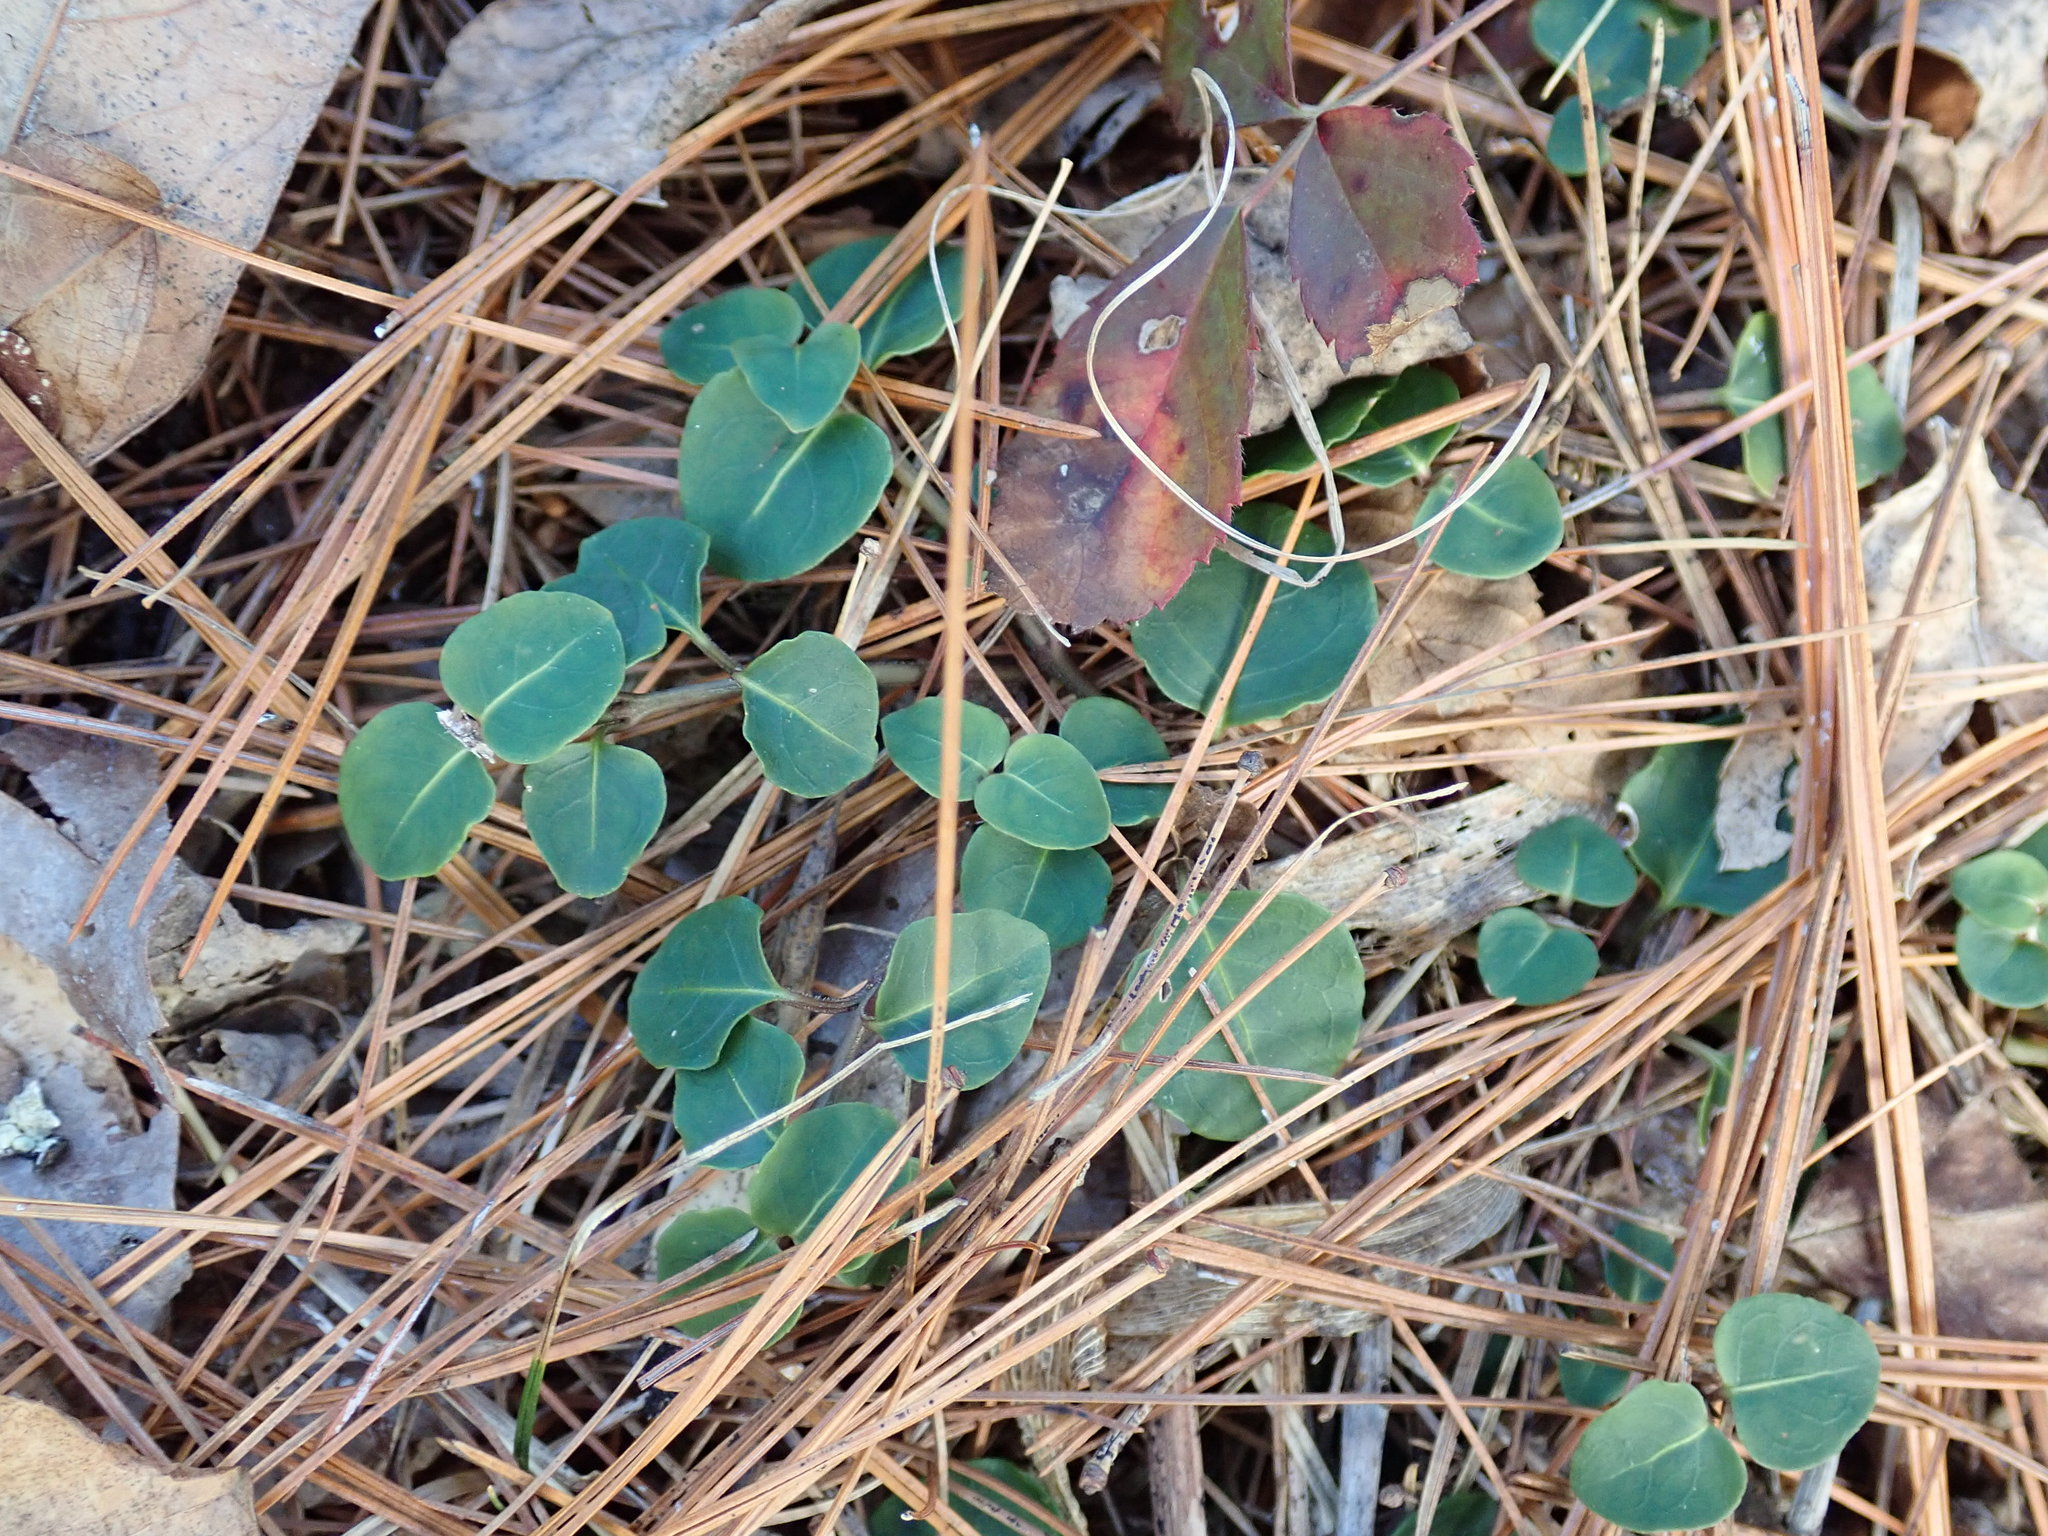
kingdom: Plantae
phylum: Tracheophyta
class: Magnoliopsida
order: Gentianales
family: Rubiaceae
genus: Mitchella
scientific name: Mitchella repens
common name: Partridge-berry
